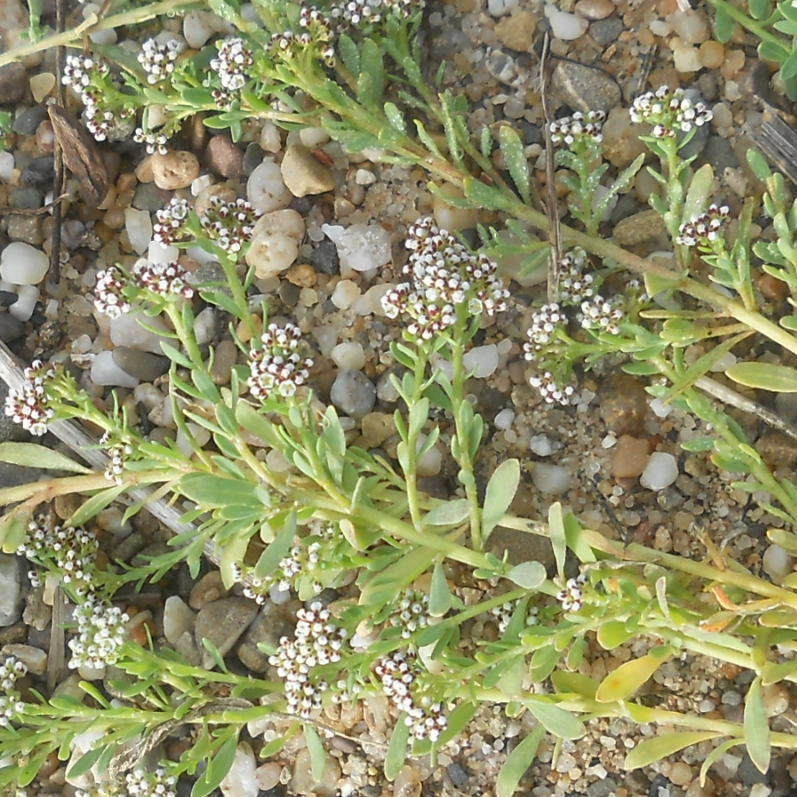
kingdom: Plantae
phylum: Tracheophyta
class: Magnoliopsida
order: Caryophyllales
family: Caryophyllaceae
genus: Corrigiola
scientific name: Corrigiola litoralis
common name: Strapwort
